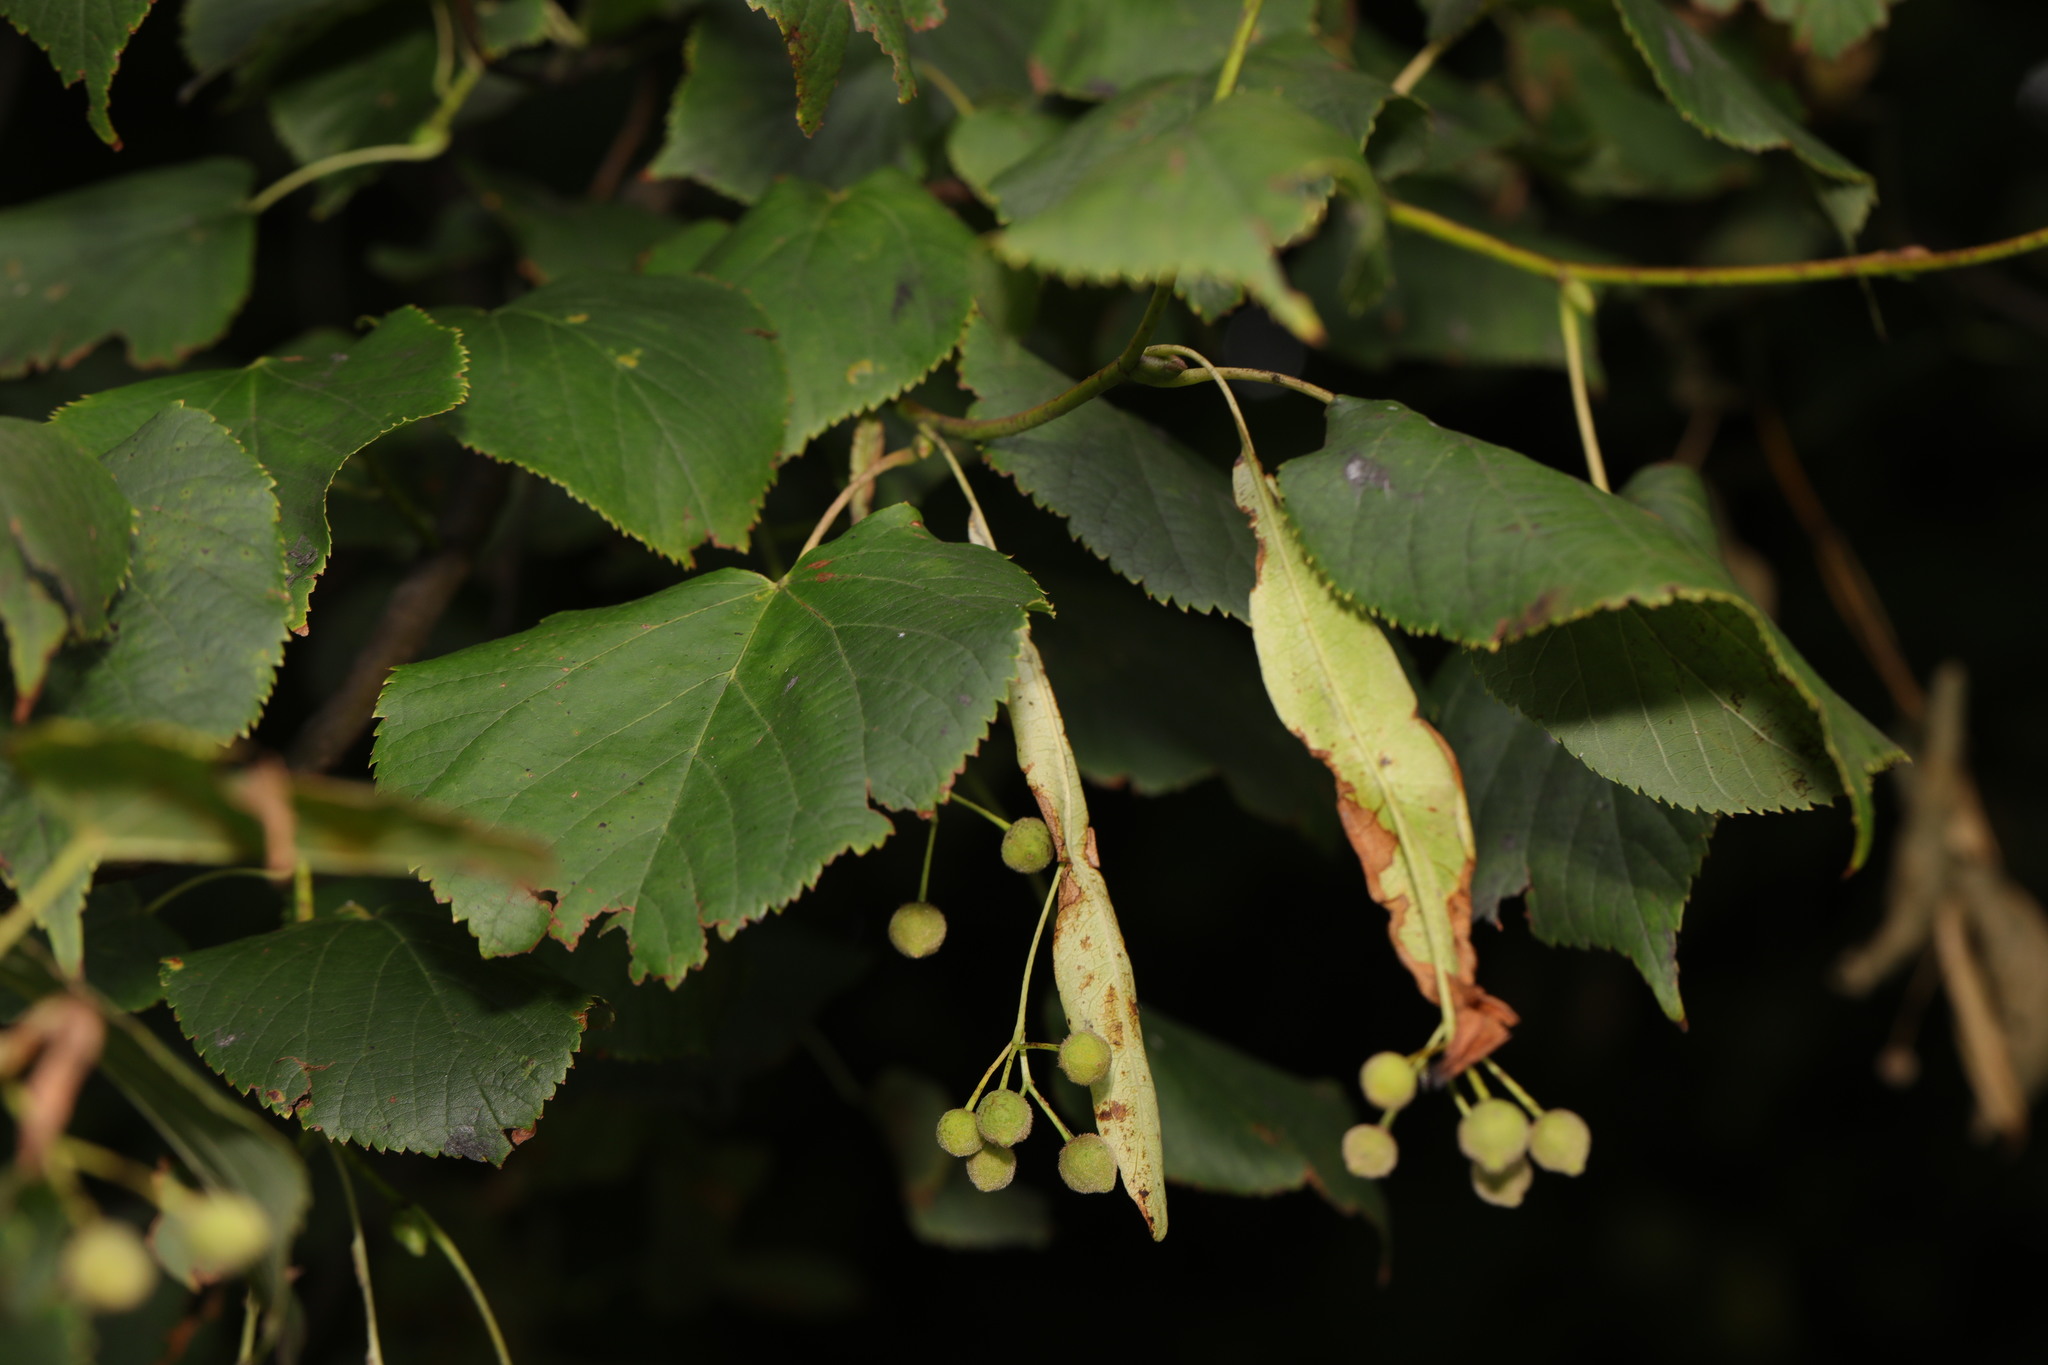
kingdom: Plantae
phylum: Tracheophyta
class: Magnoliopsida
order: Malvales
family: Malvaceae
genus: Tilia
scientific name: Tilia europaea
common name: European linden
